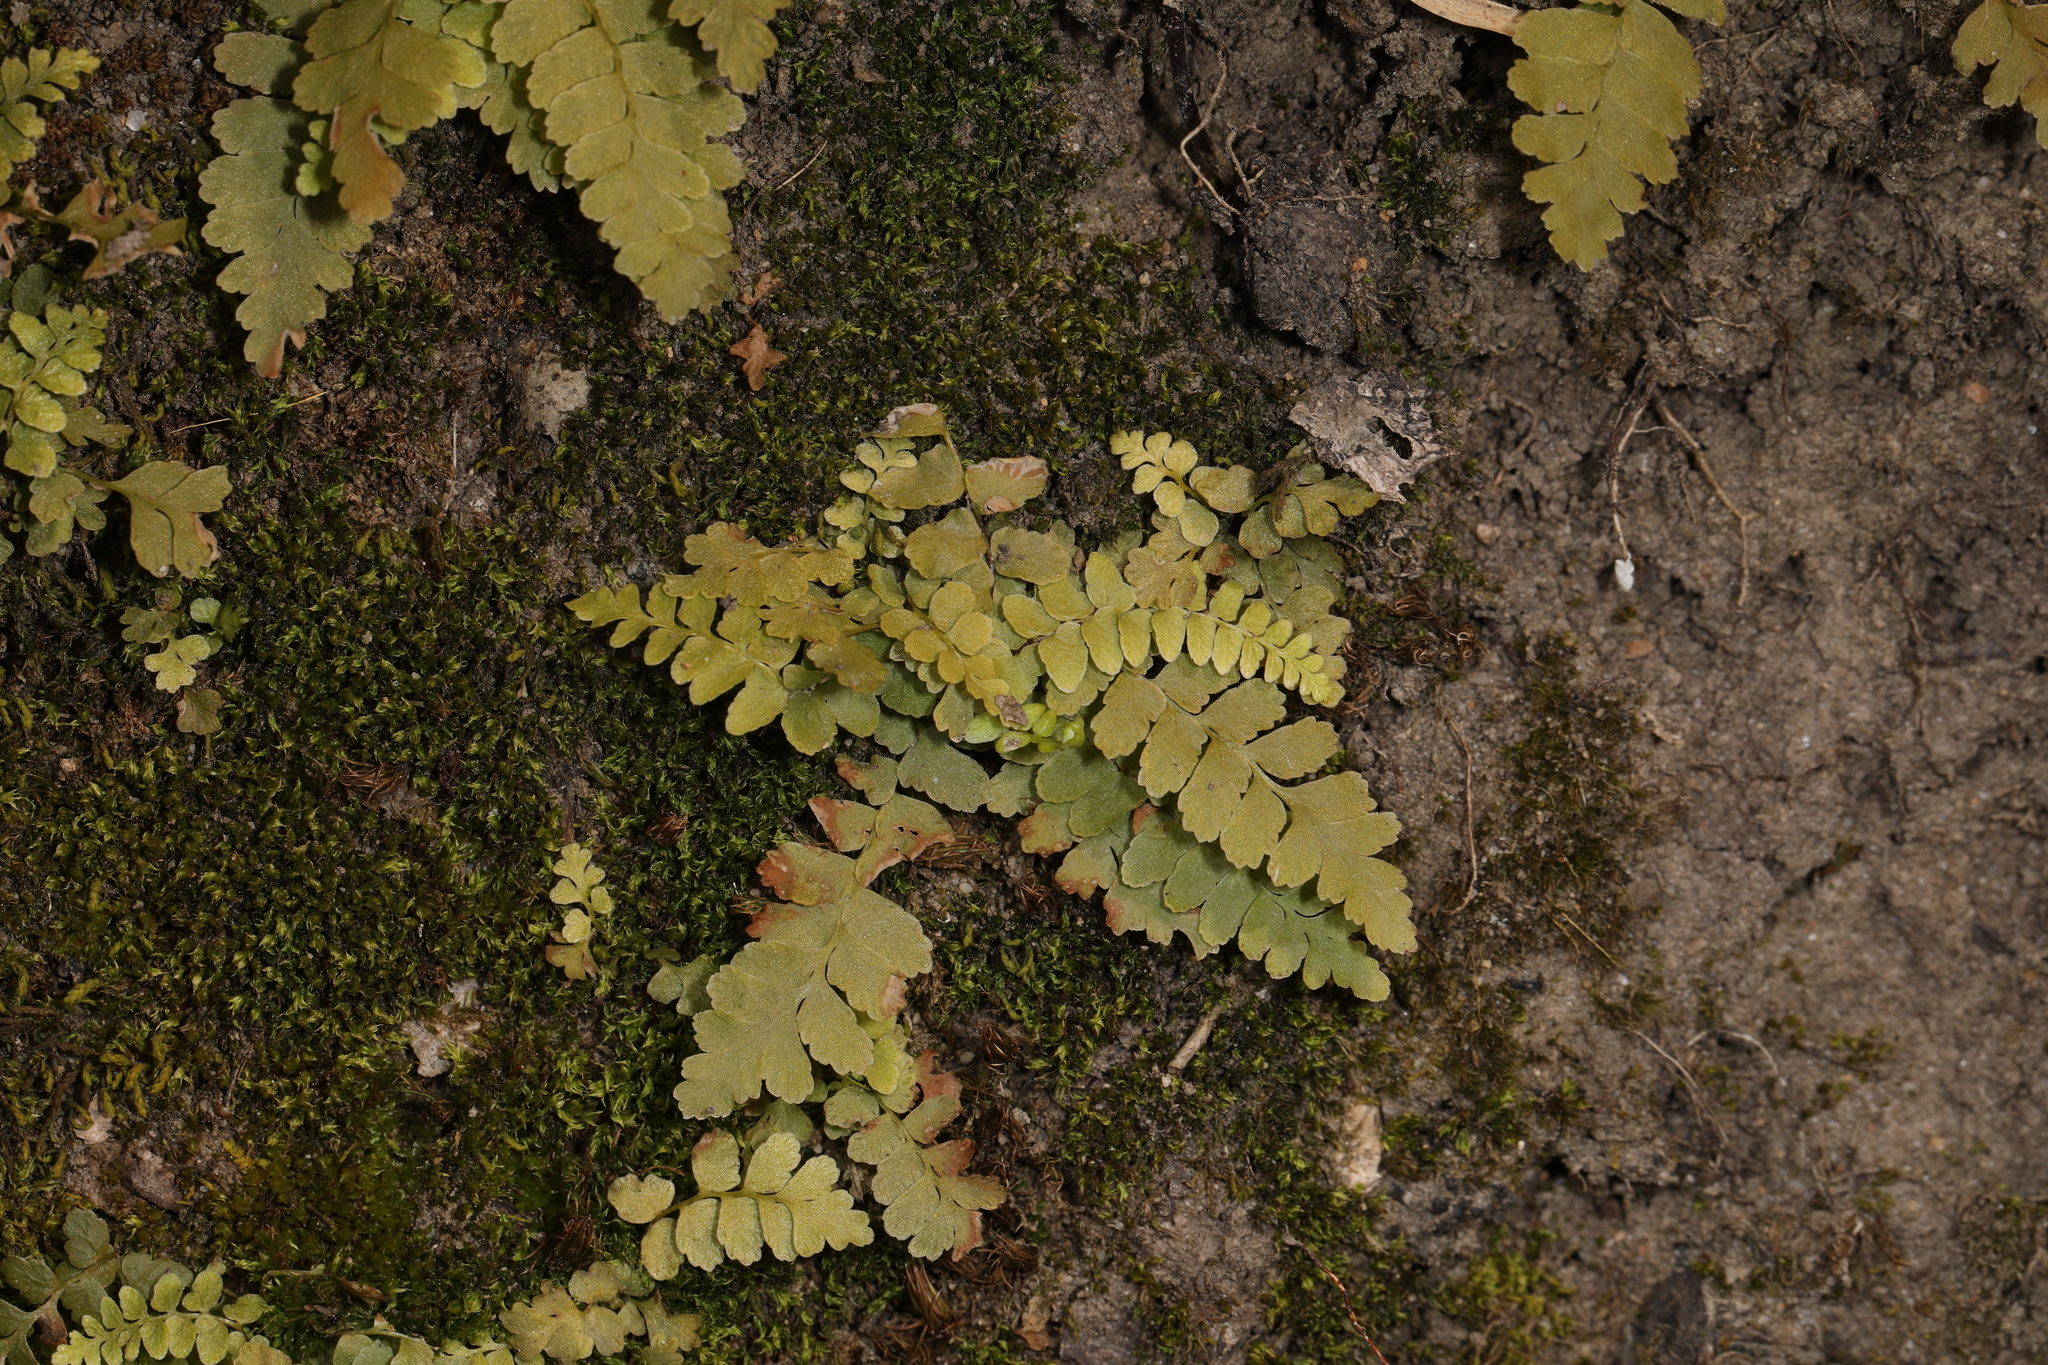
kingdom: Plantae
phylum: Tracheophyta
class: Polypodiopsida
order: Polypodiales
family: Aspleniaceae
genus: Asplenium
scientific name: Asplenium platyneuron
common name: Ebony spleenwort
